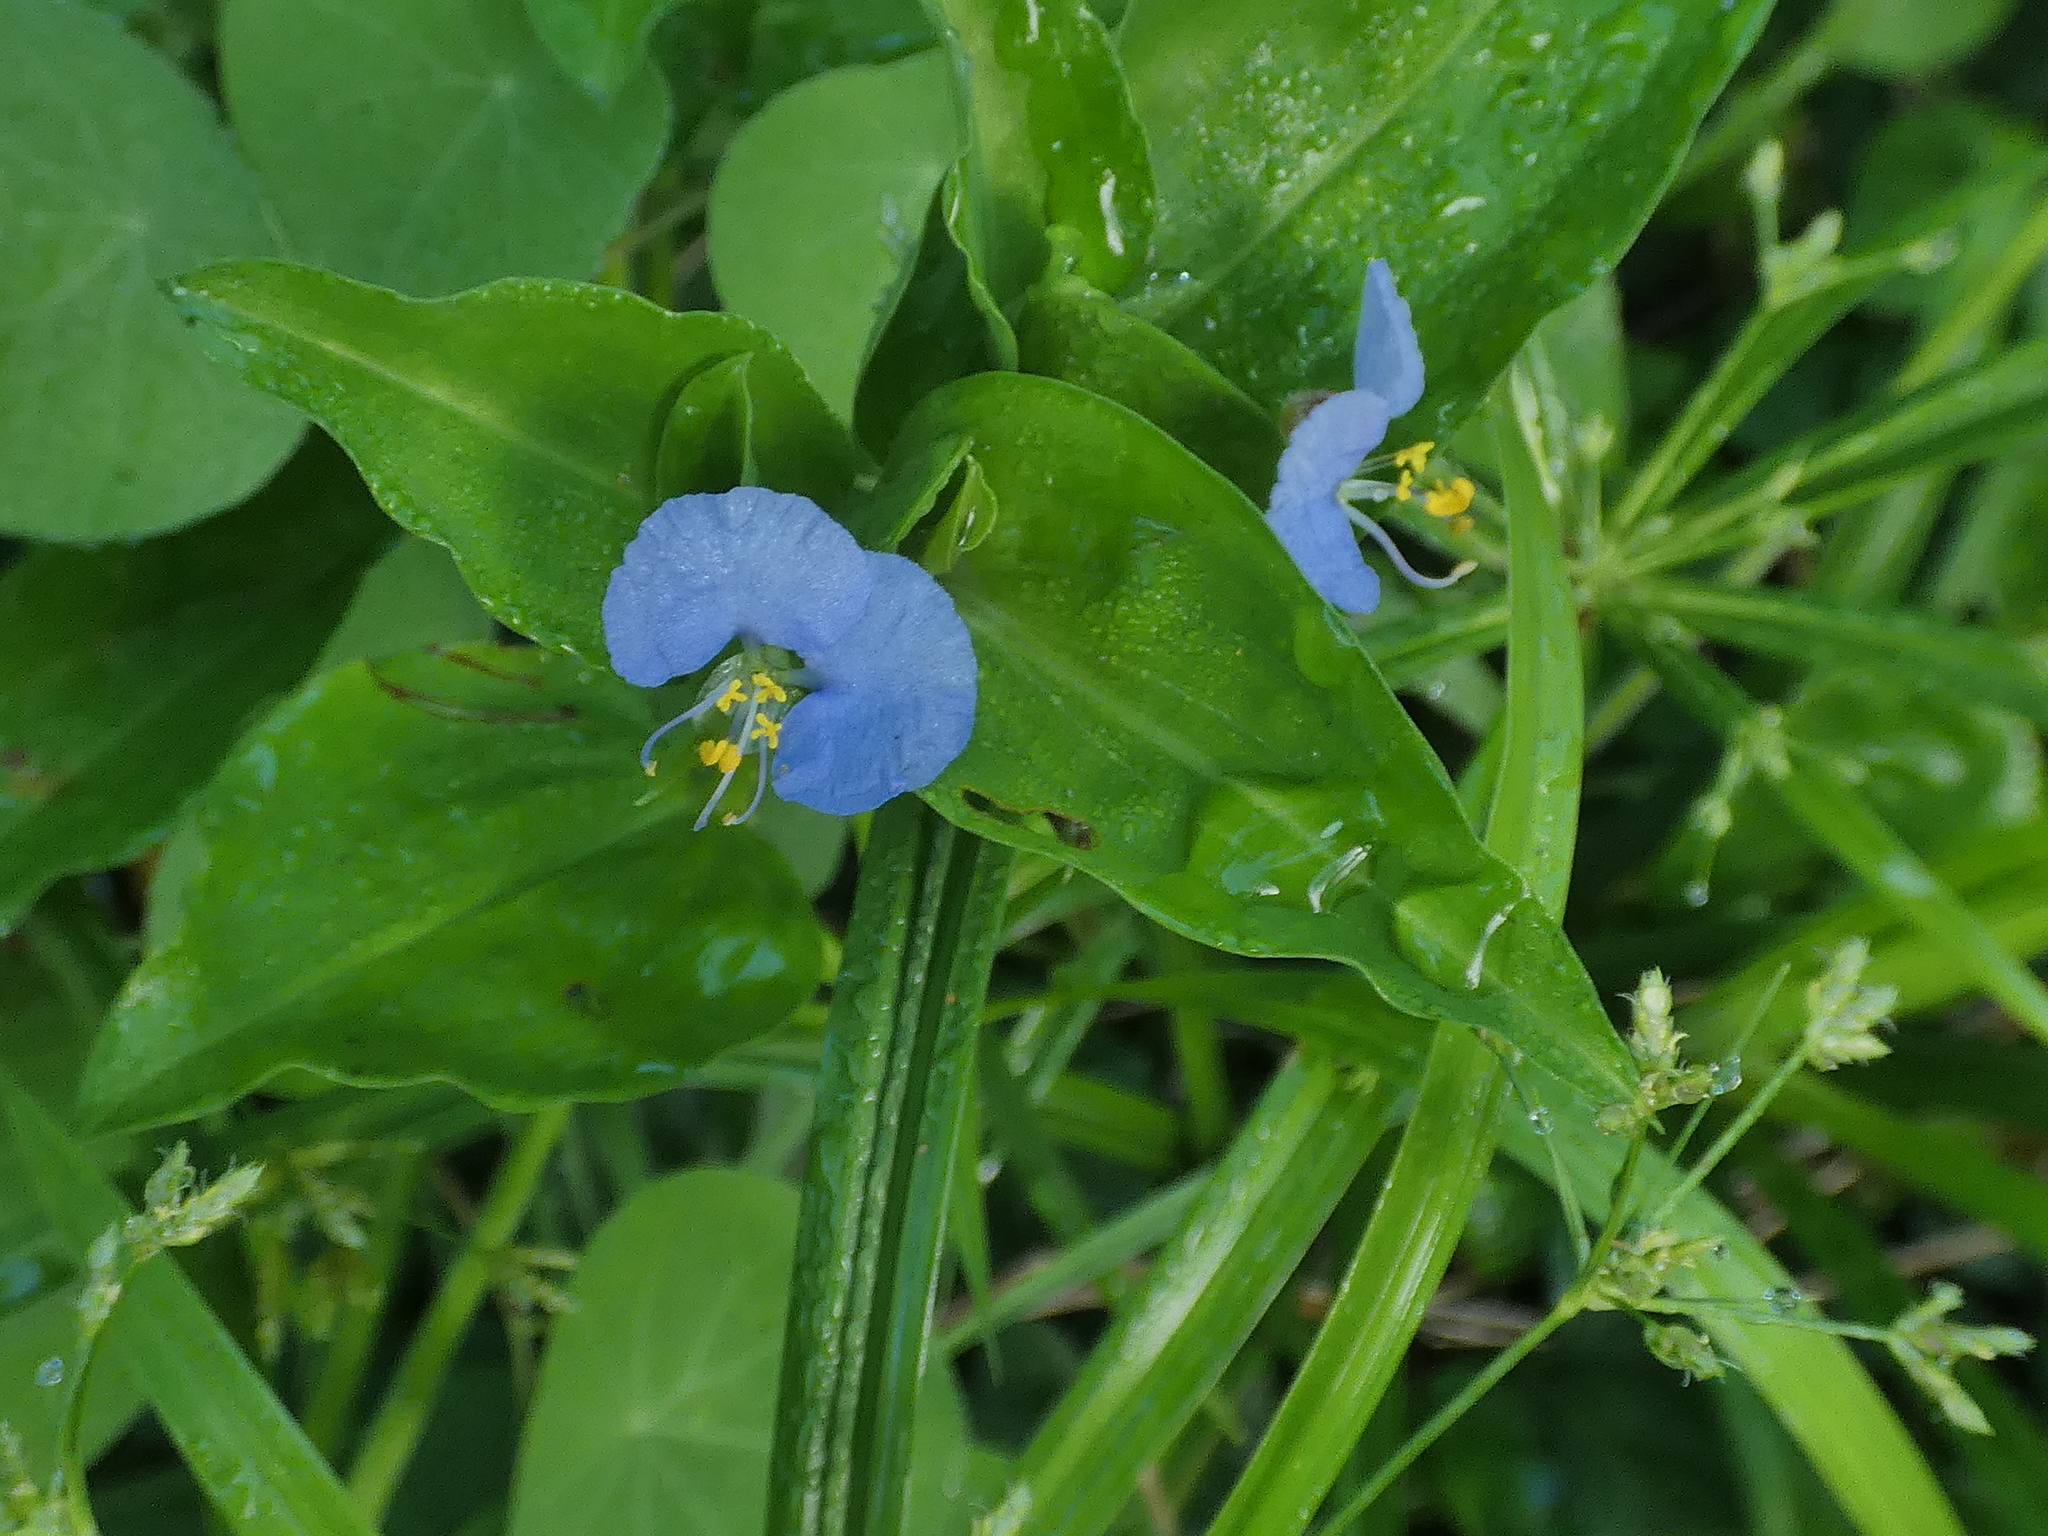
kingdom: Plantae
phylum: Tracheophyta
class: Liliopsida
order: Commelinales
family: Commelinaceae
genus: Commelina
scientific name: Commelina erecta
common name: Blousel blommetjie
